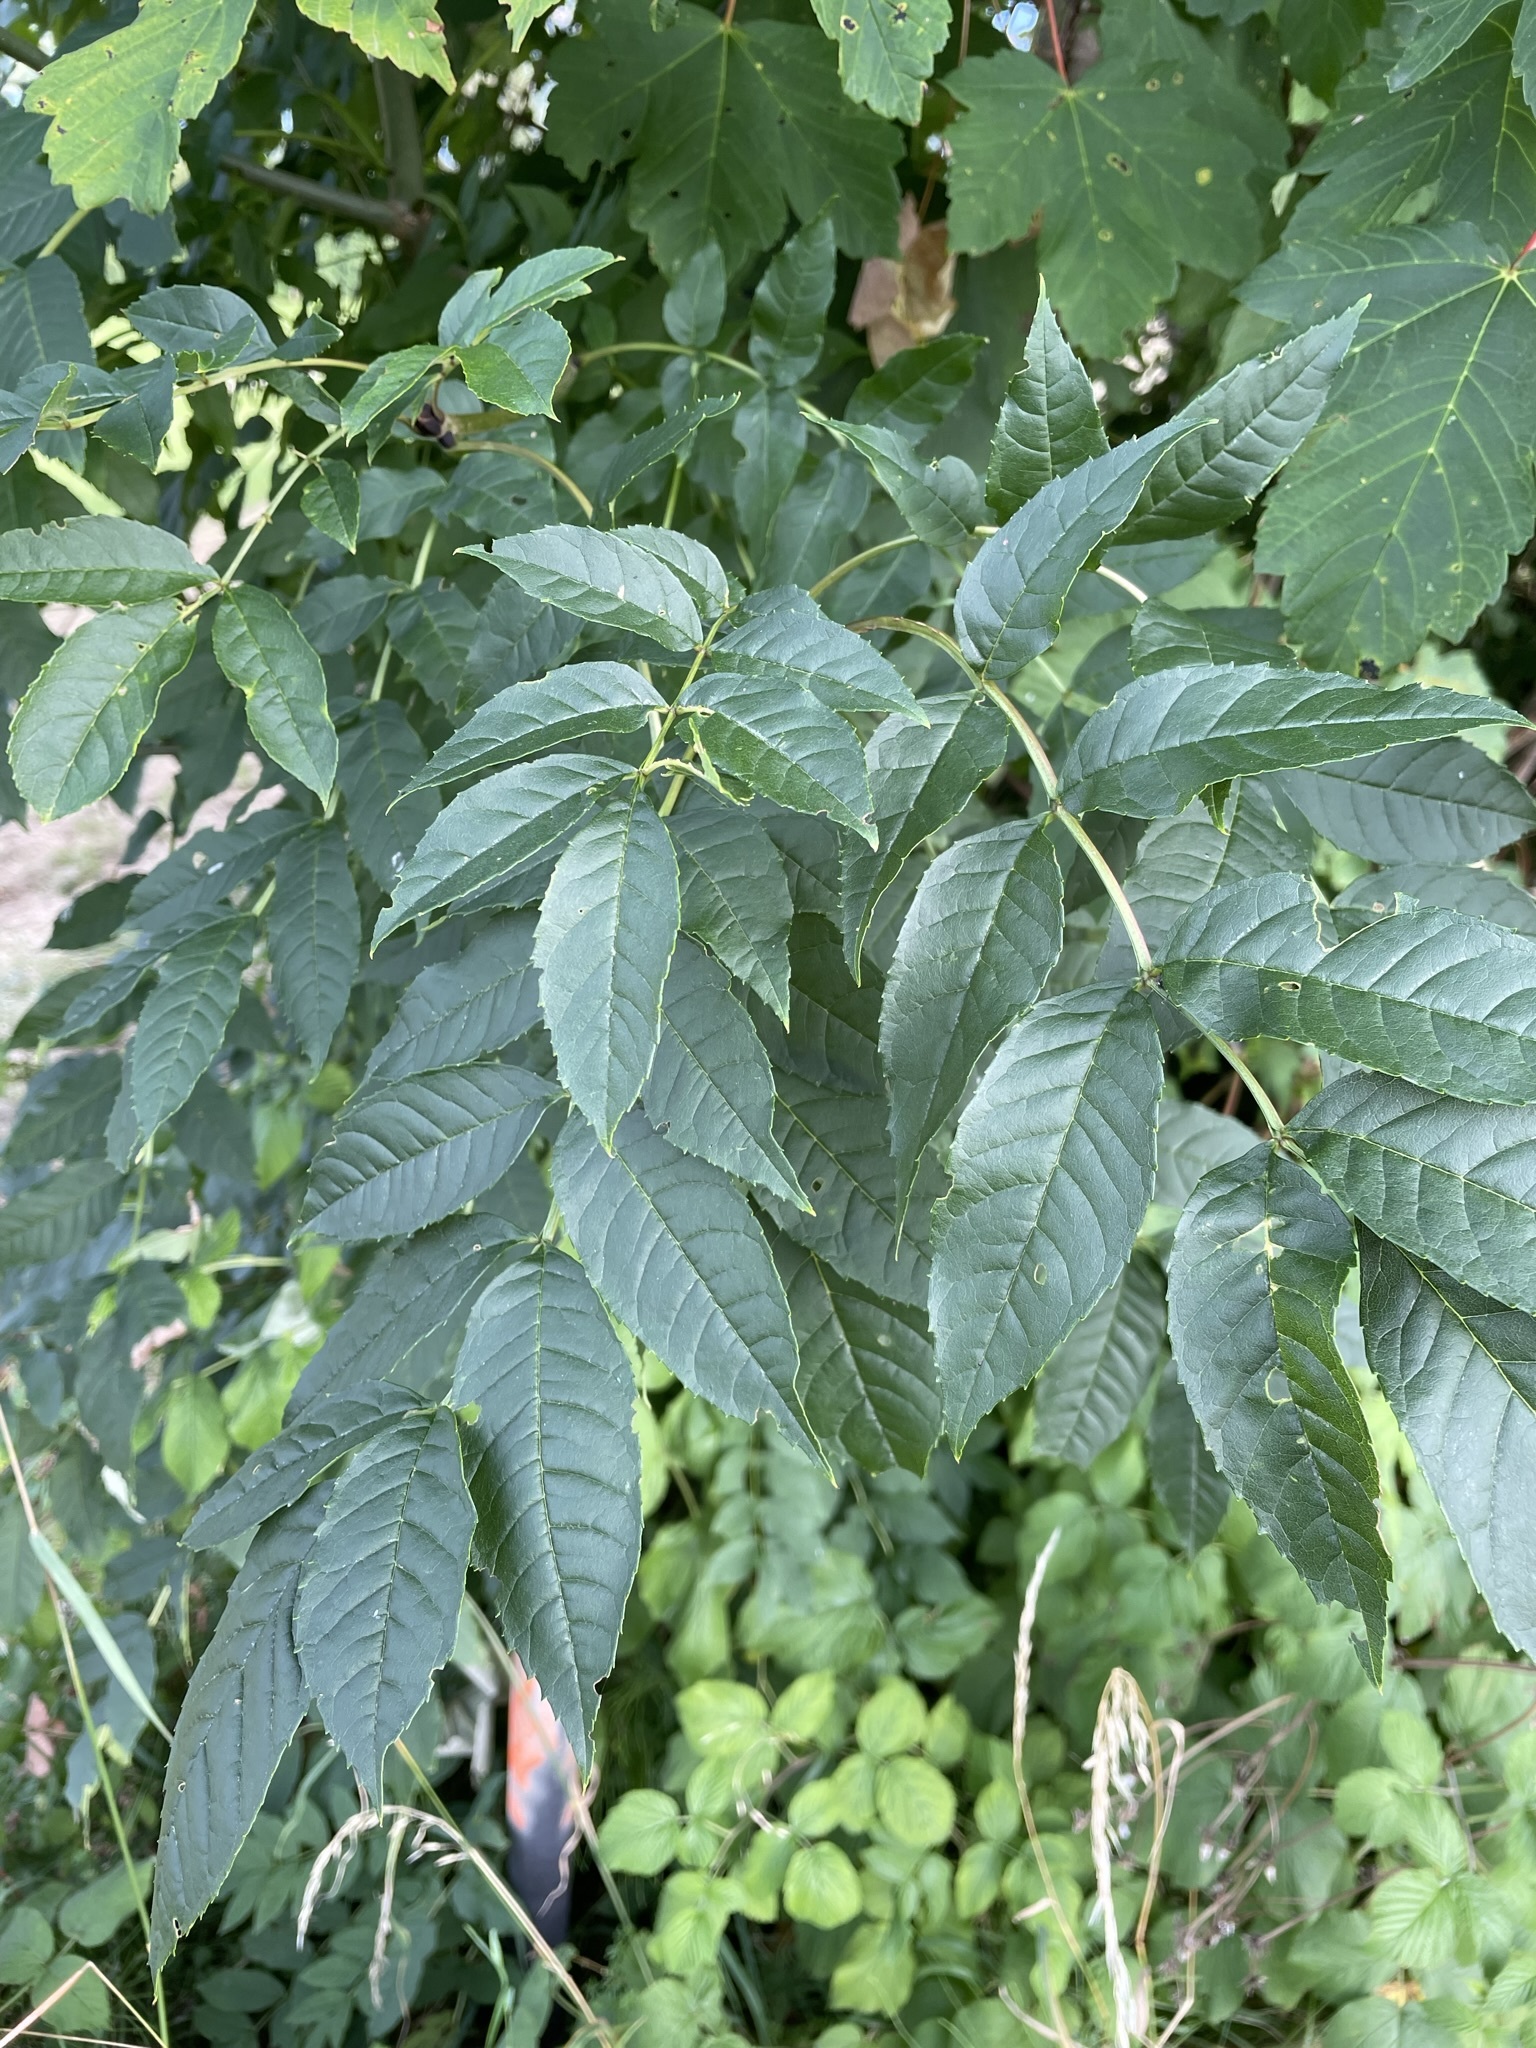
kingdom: Plantae
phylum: Tracheophyta
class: Magnoliopsida
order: Lamiales
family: Oleaceae
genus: Fraxinus
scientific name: Fraxinus excelsior
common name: European ash
